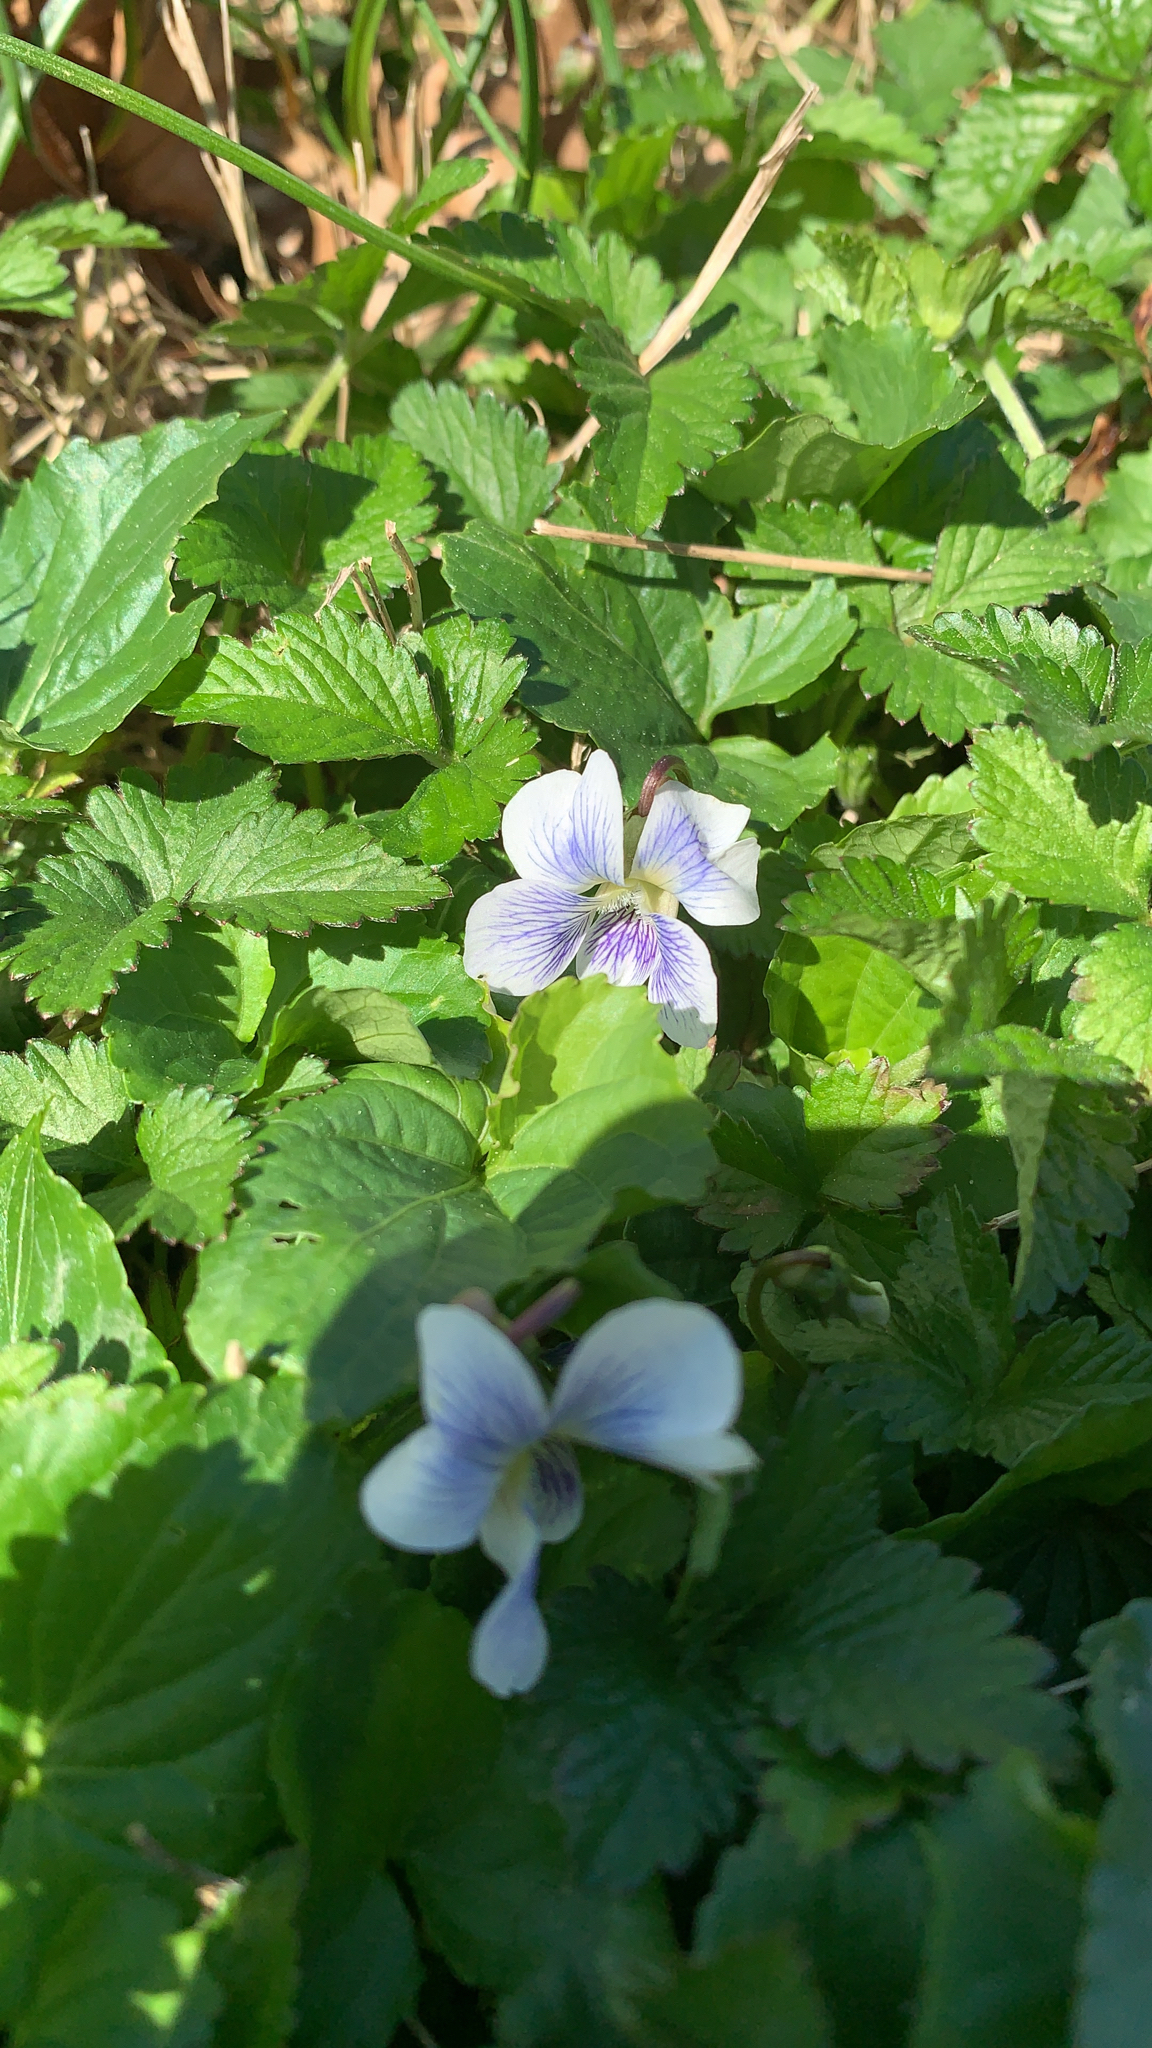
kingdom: Plantae
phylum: Tracheophyta
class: Magnoliopsida
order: Malpighiales
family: Violaceae
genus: Viola
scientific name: Viola sororia
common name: Dooryard violet
